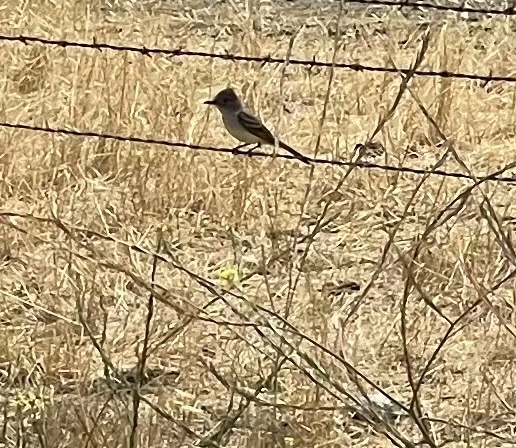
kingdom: Animalia
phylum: Chordata
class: Aves
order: Passeriformes
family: Tyrannidae
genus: Myiarchus
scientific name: Myiarchus cinerascens
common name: Ash-throated flycatcher
